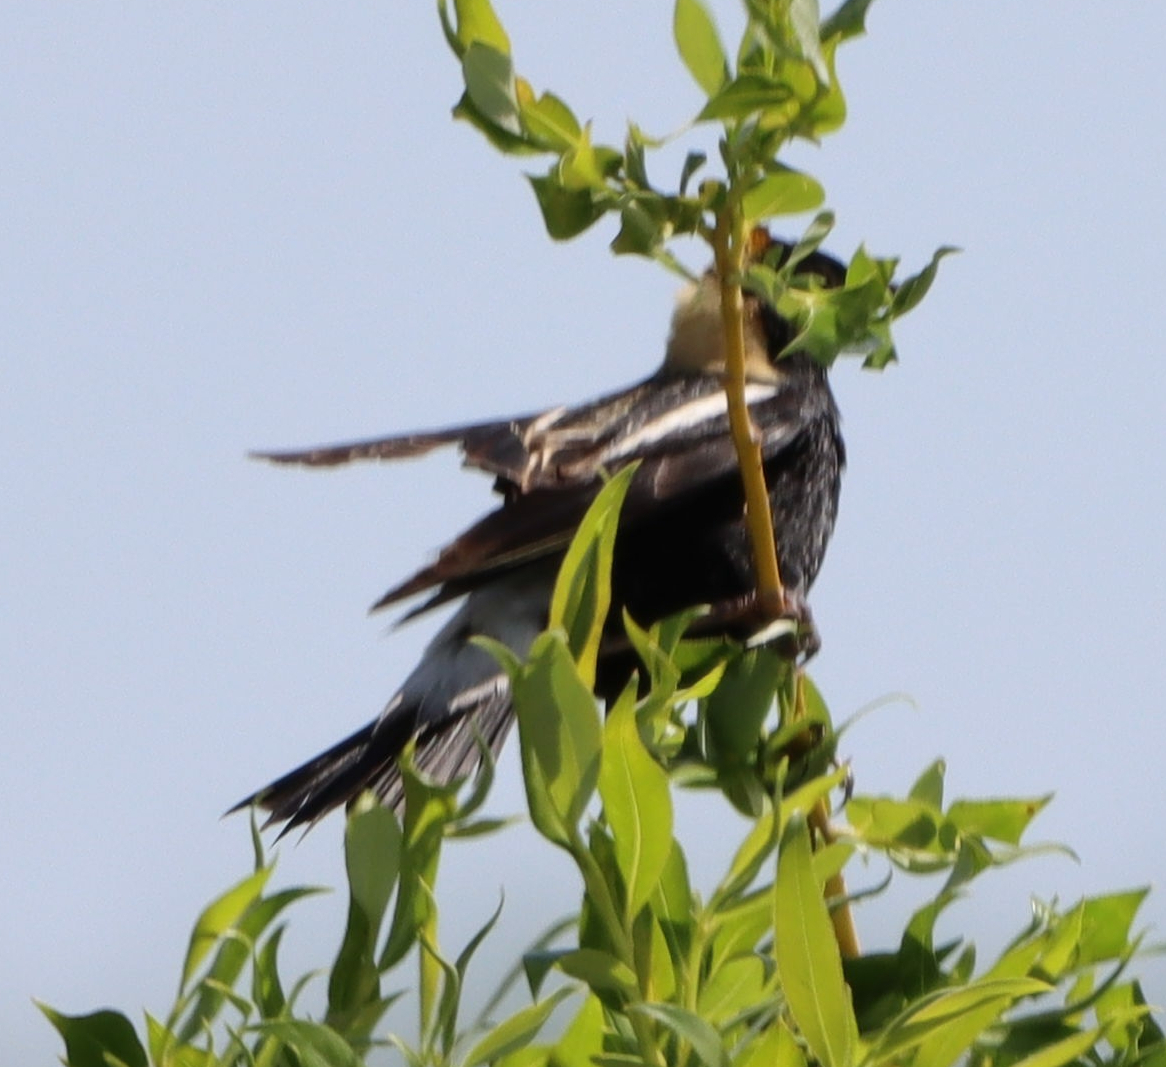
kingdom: Animalia
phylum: Chordata
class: Aves
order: Passeriformes
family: Icteridae
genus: Dolichonyx
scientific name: Dolichonyx oryzivorus
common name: Bobolink
